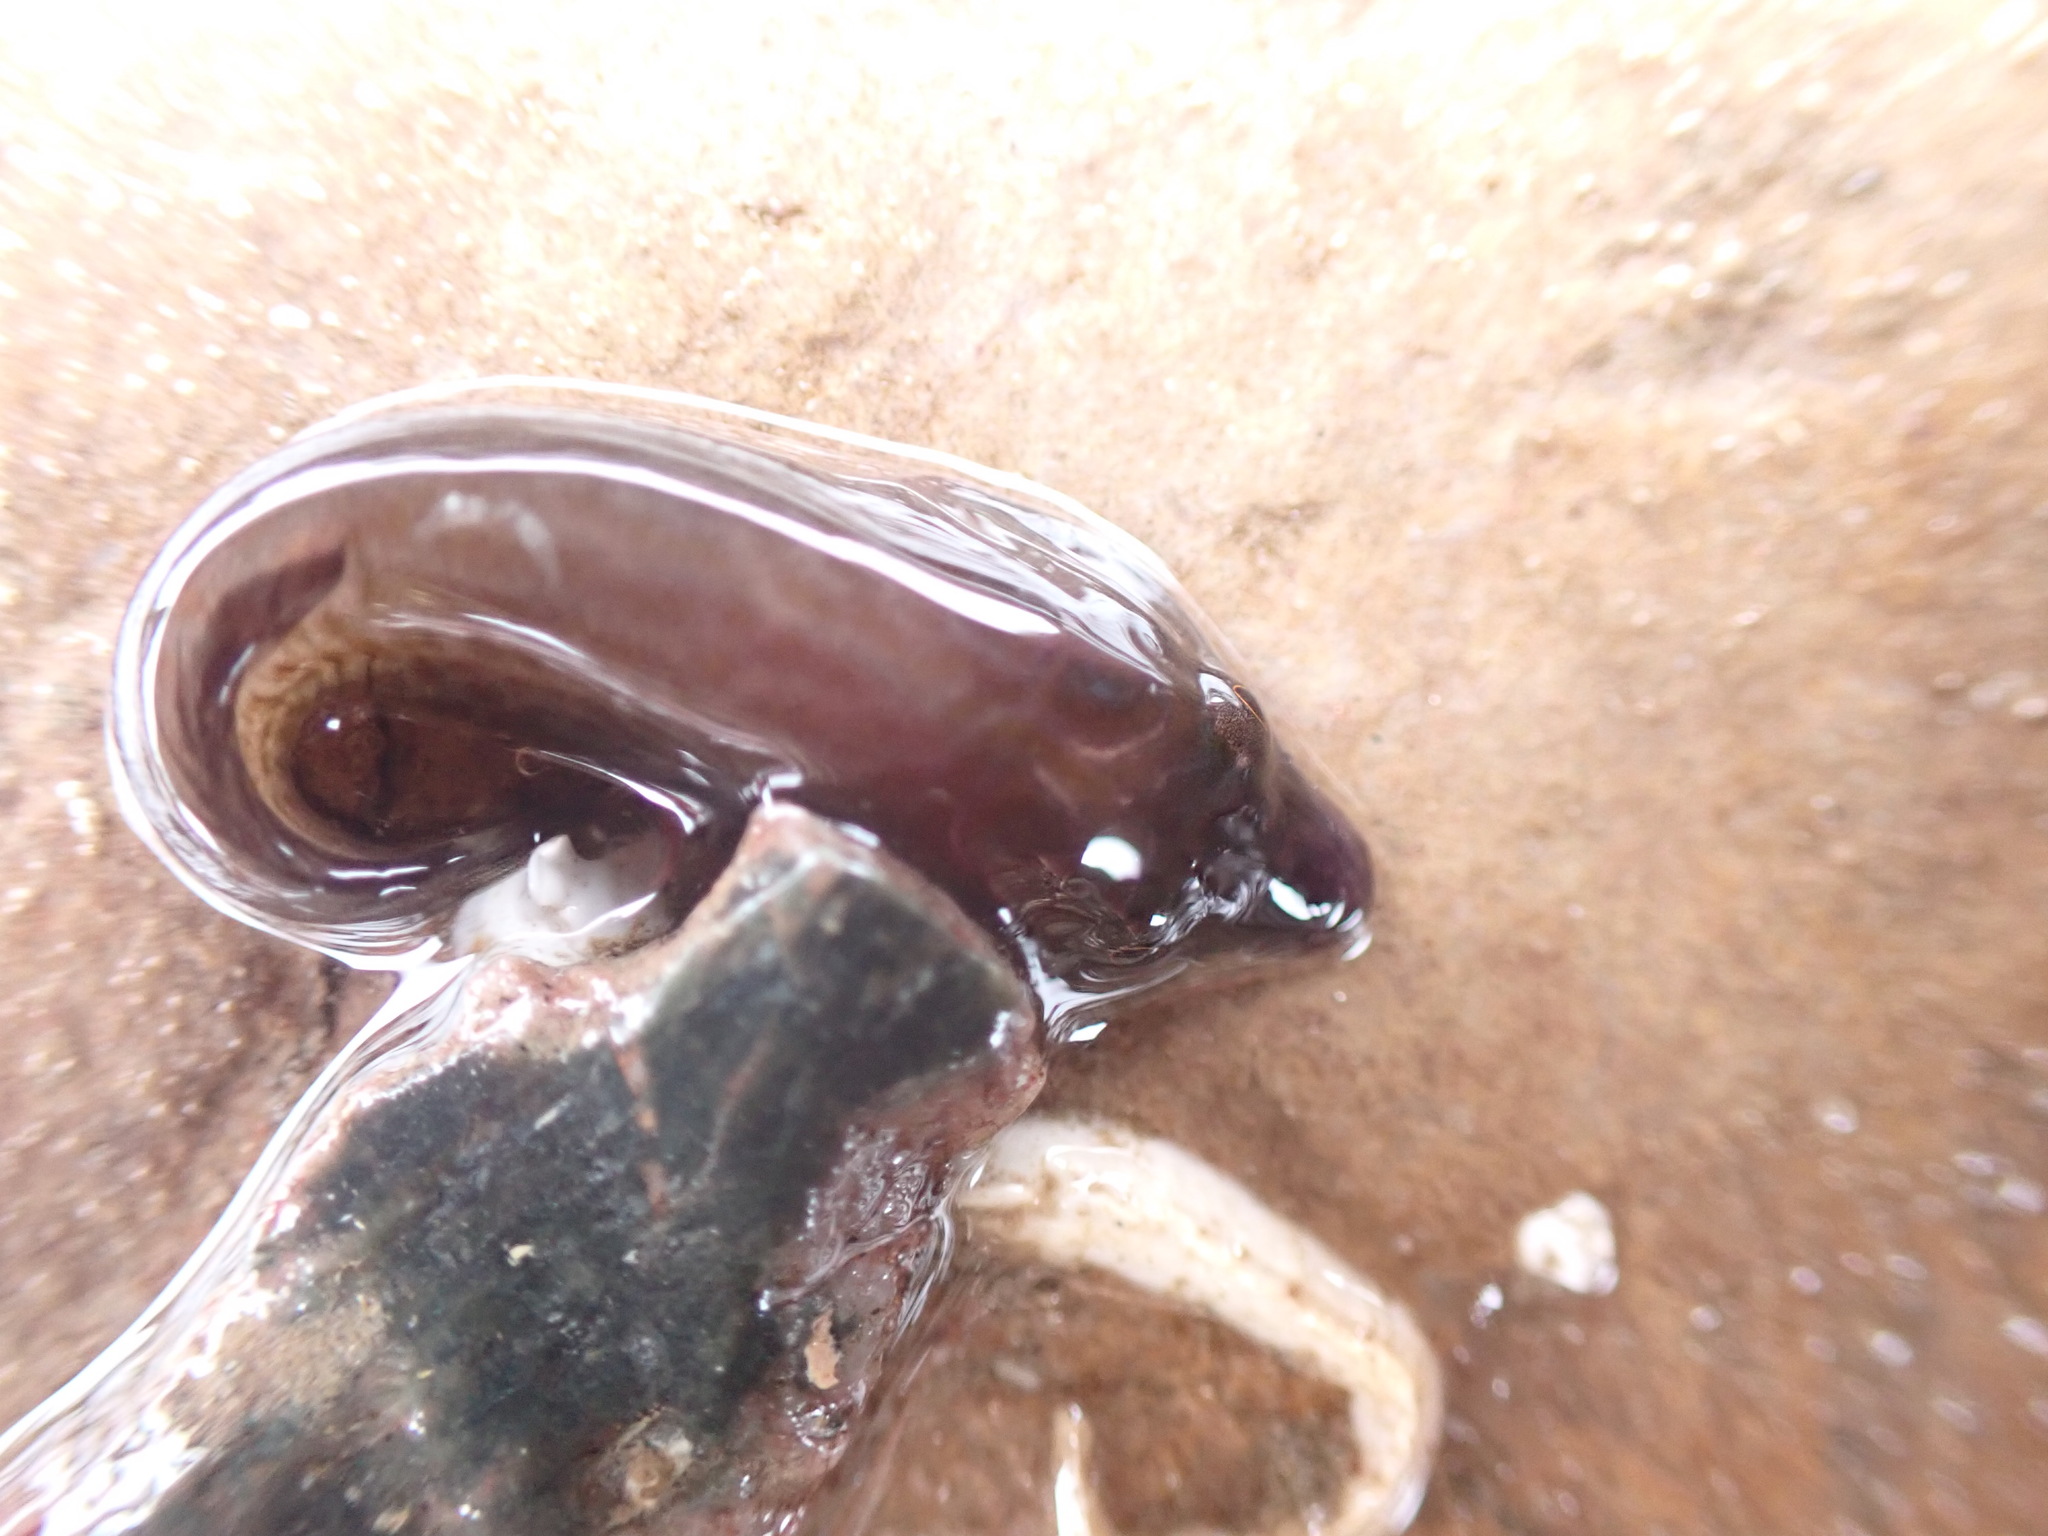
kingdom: Animalia
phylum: Chordata
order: Gobiesociformes
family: Gobiesocidae
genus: Lepadogaster
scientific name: Lepadogaster purpurea
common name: Cornish sucker
